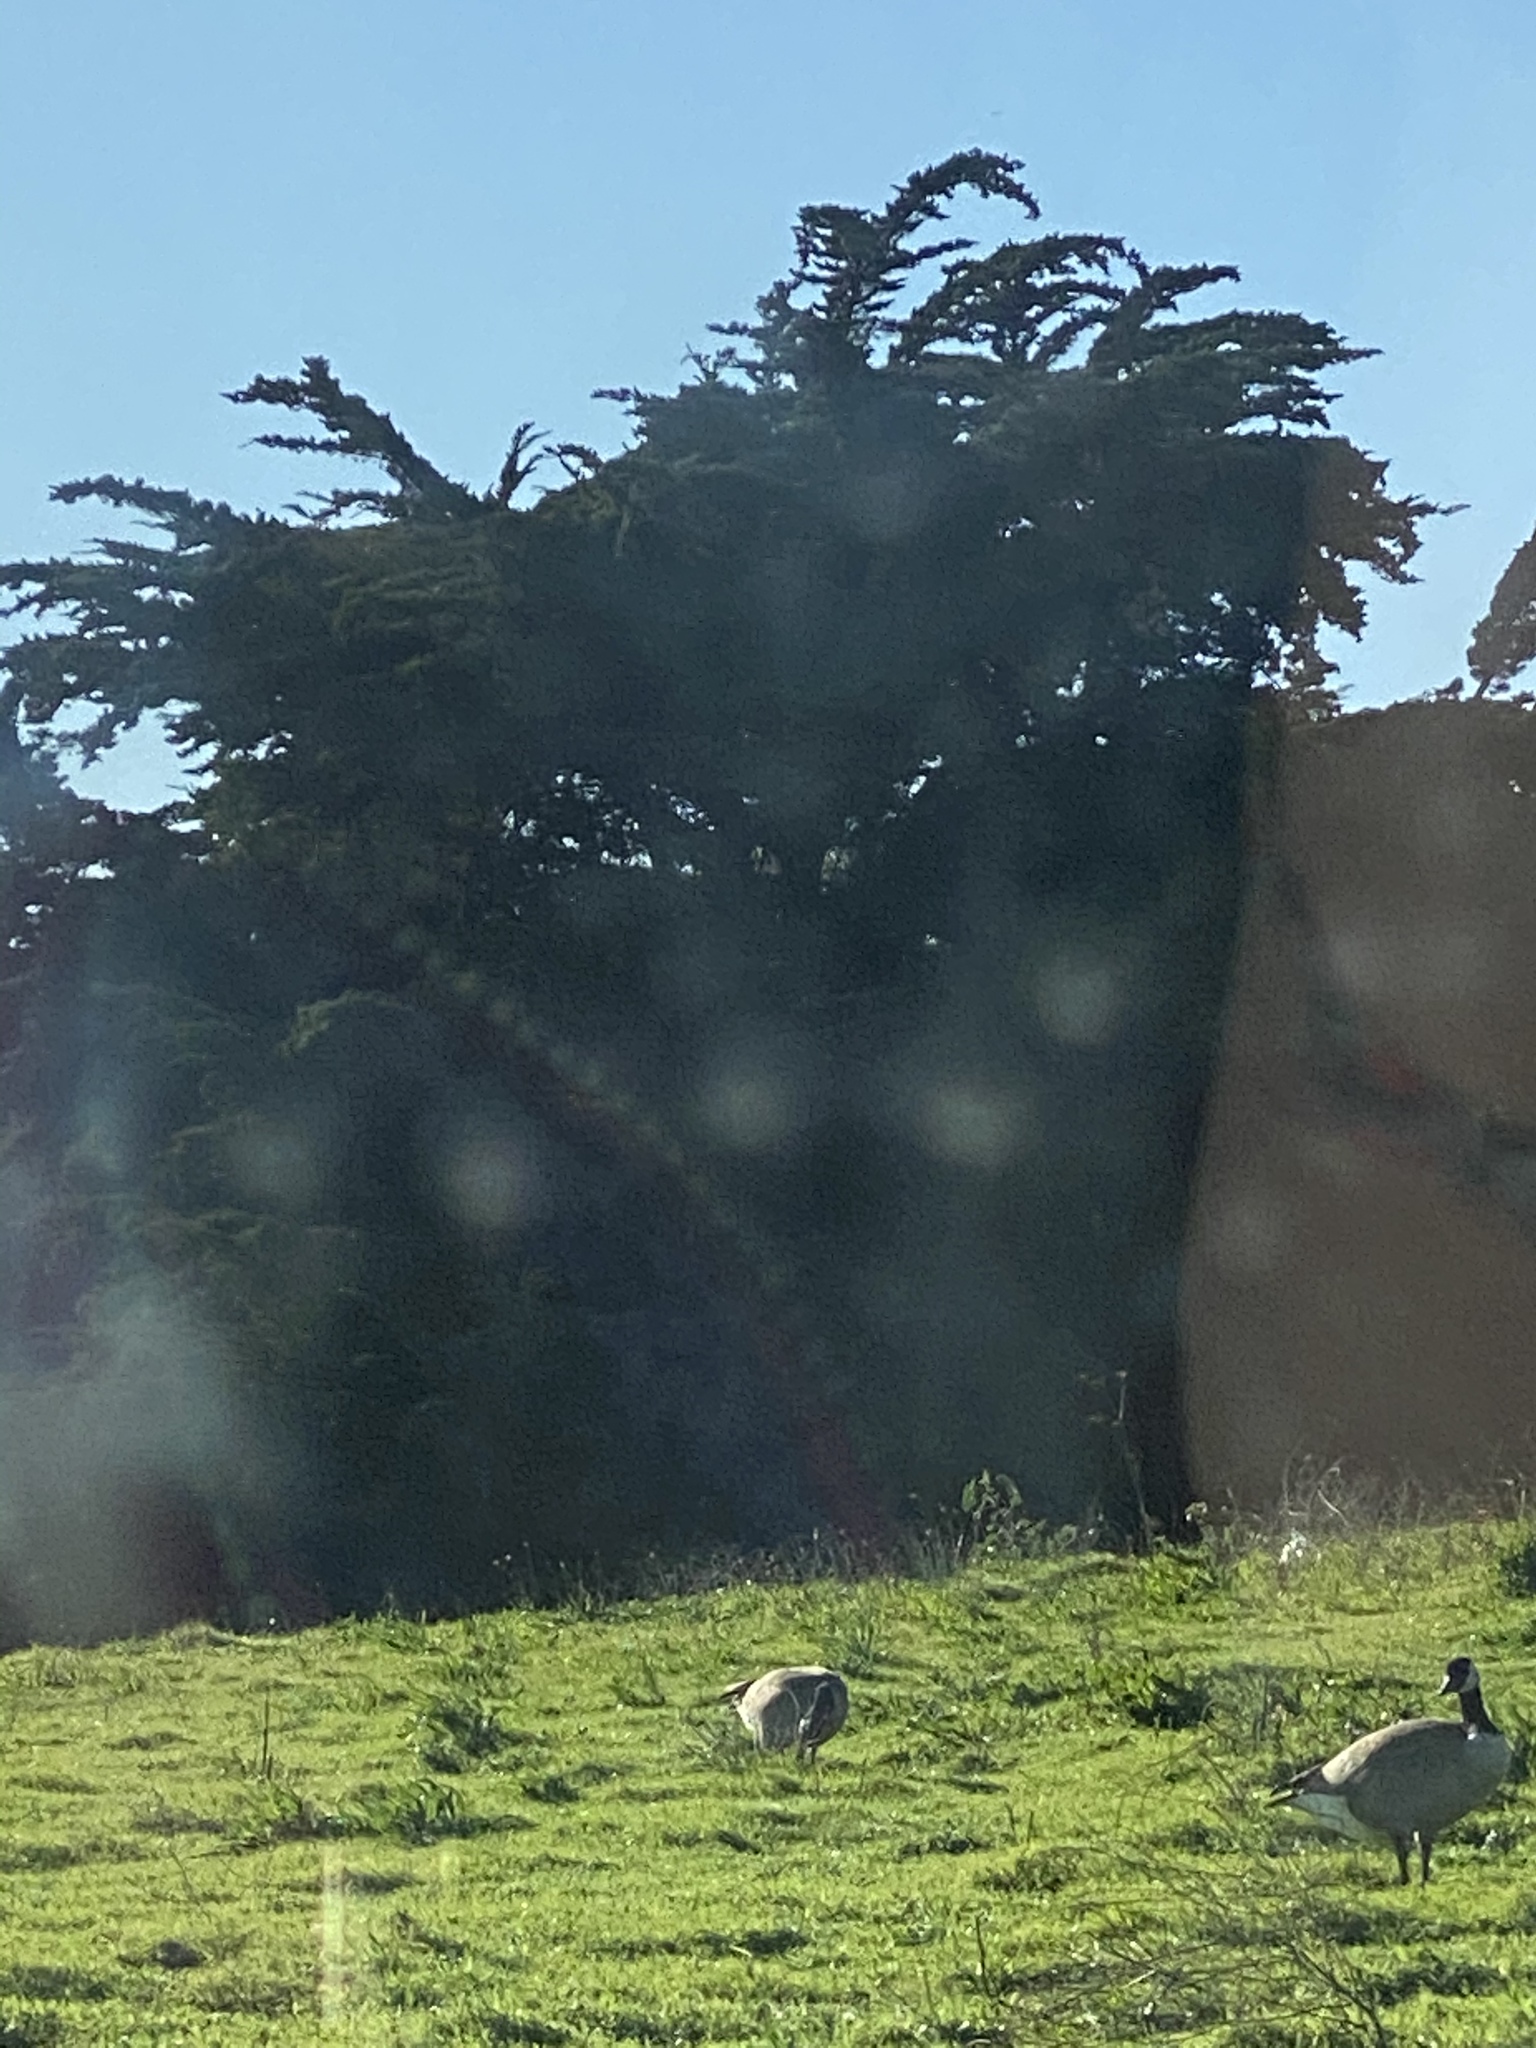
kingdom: Animalia
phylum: Chordata
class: Aves
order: Anseriformes
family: Anatidae
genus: Branta
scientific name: Branta canadensis
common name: Canada goose
